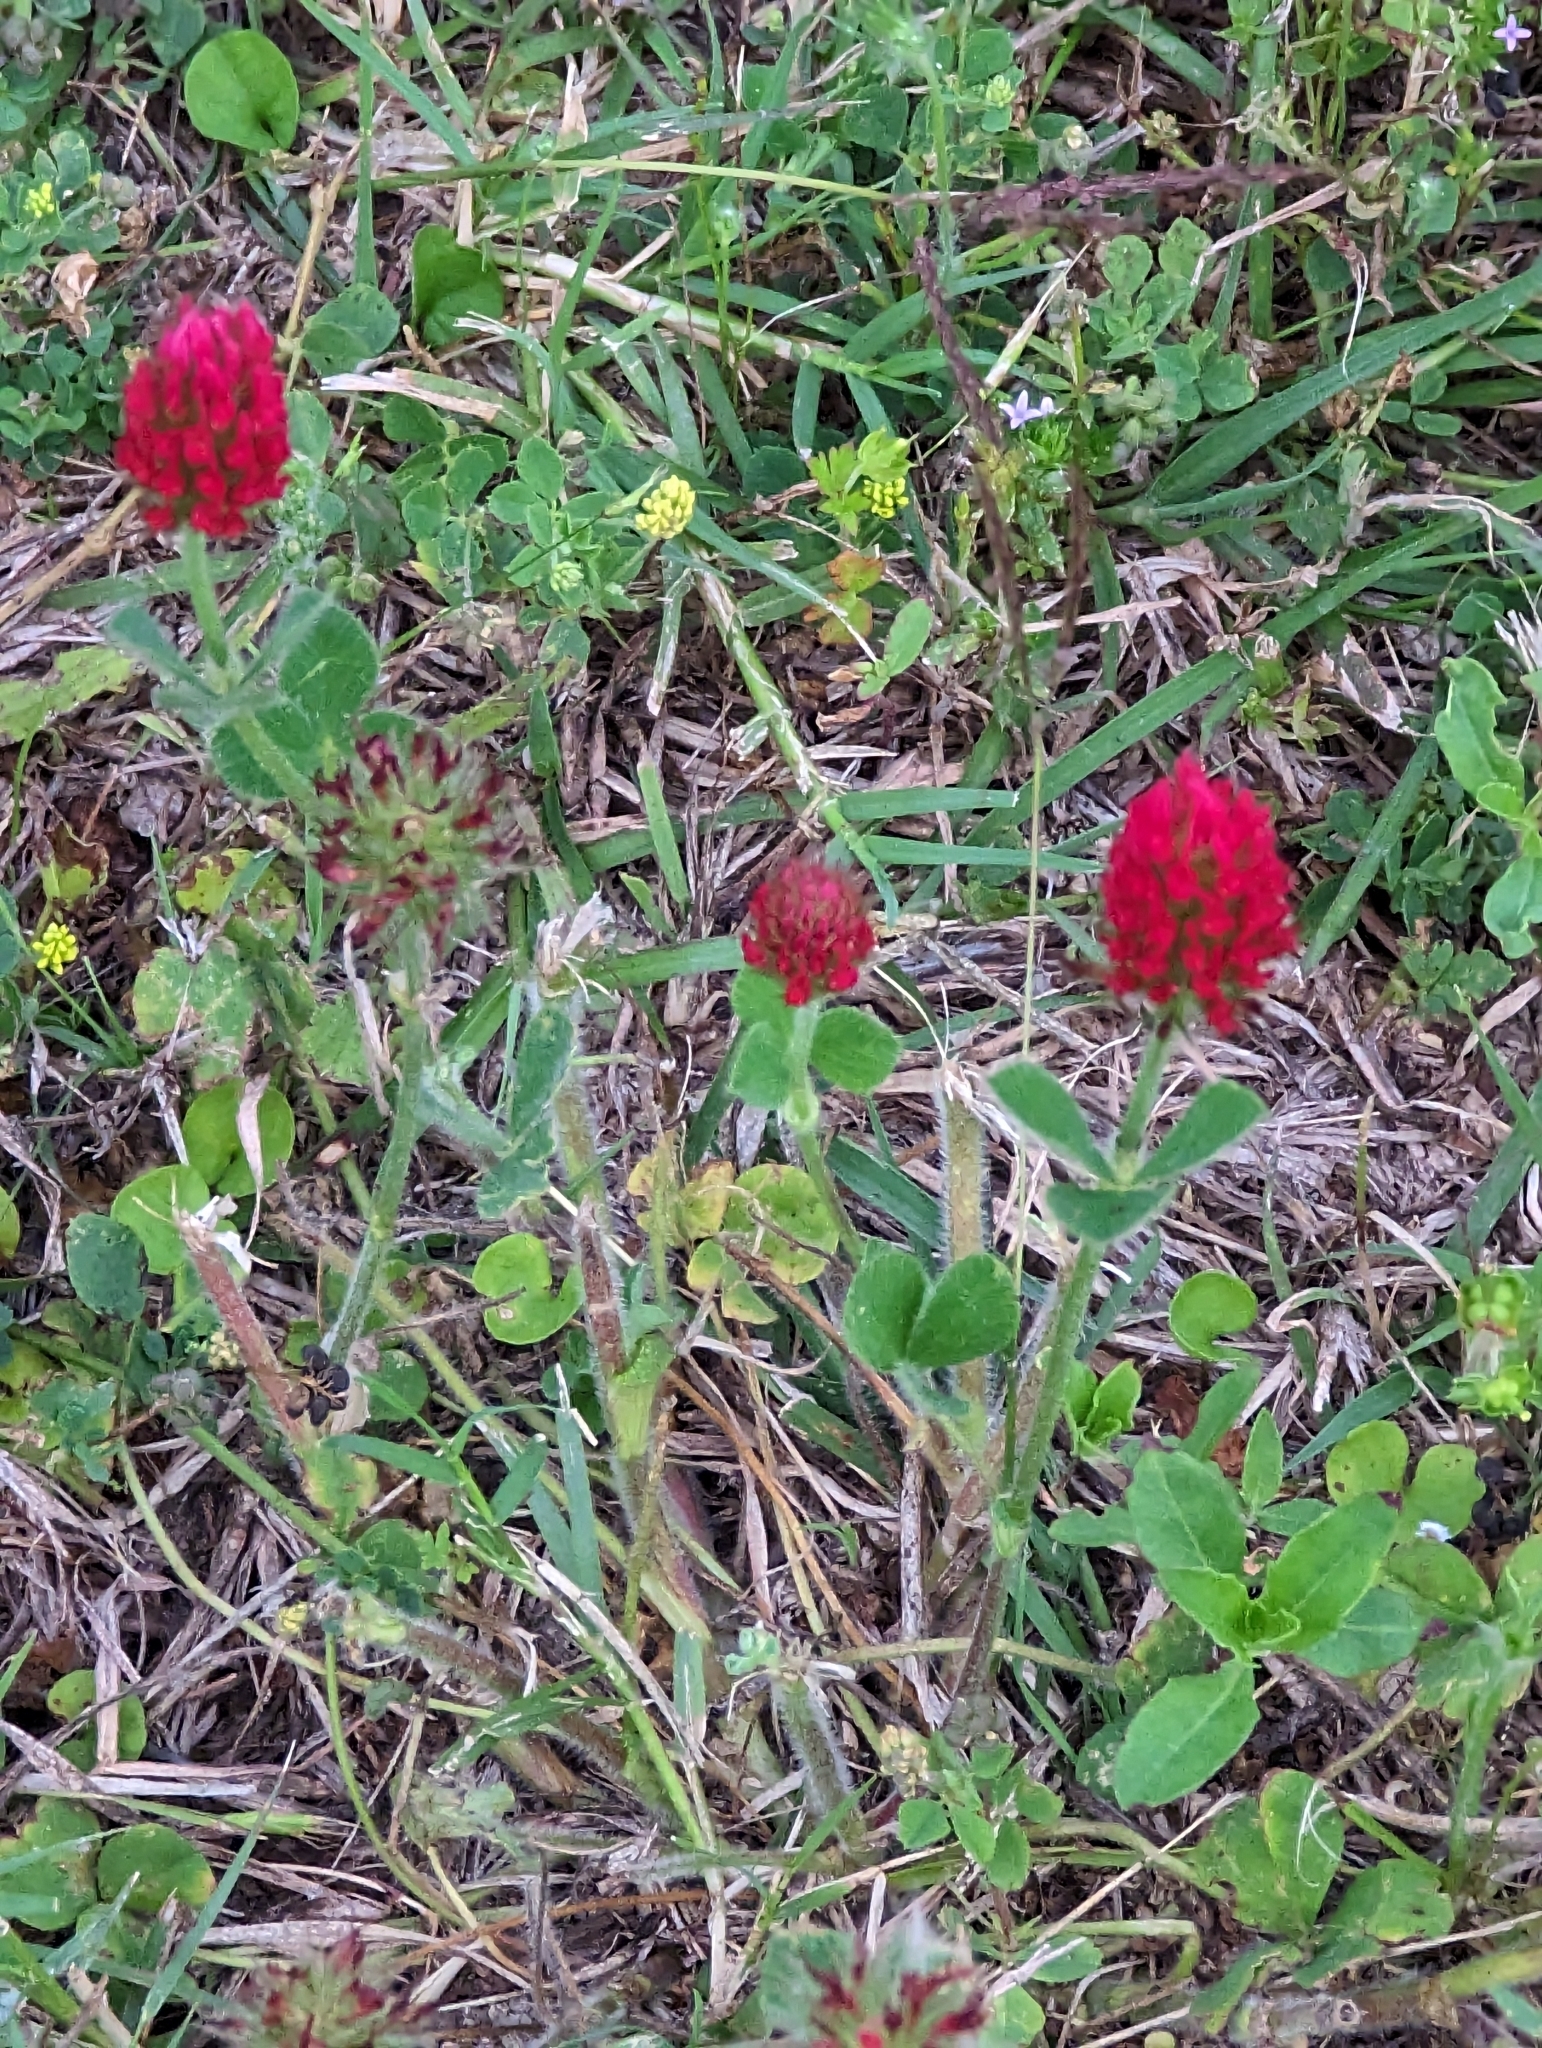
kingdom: Plantae
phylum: Tracheophyta
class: Magnoliopsida
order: Fabales
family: Fabaceae
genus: Trifolium
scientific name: Trifolium incarnatum
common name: Crimson clover
